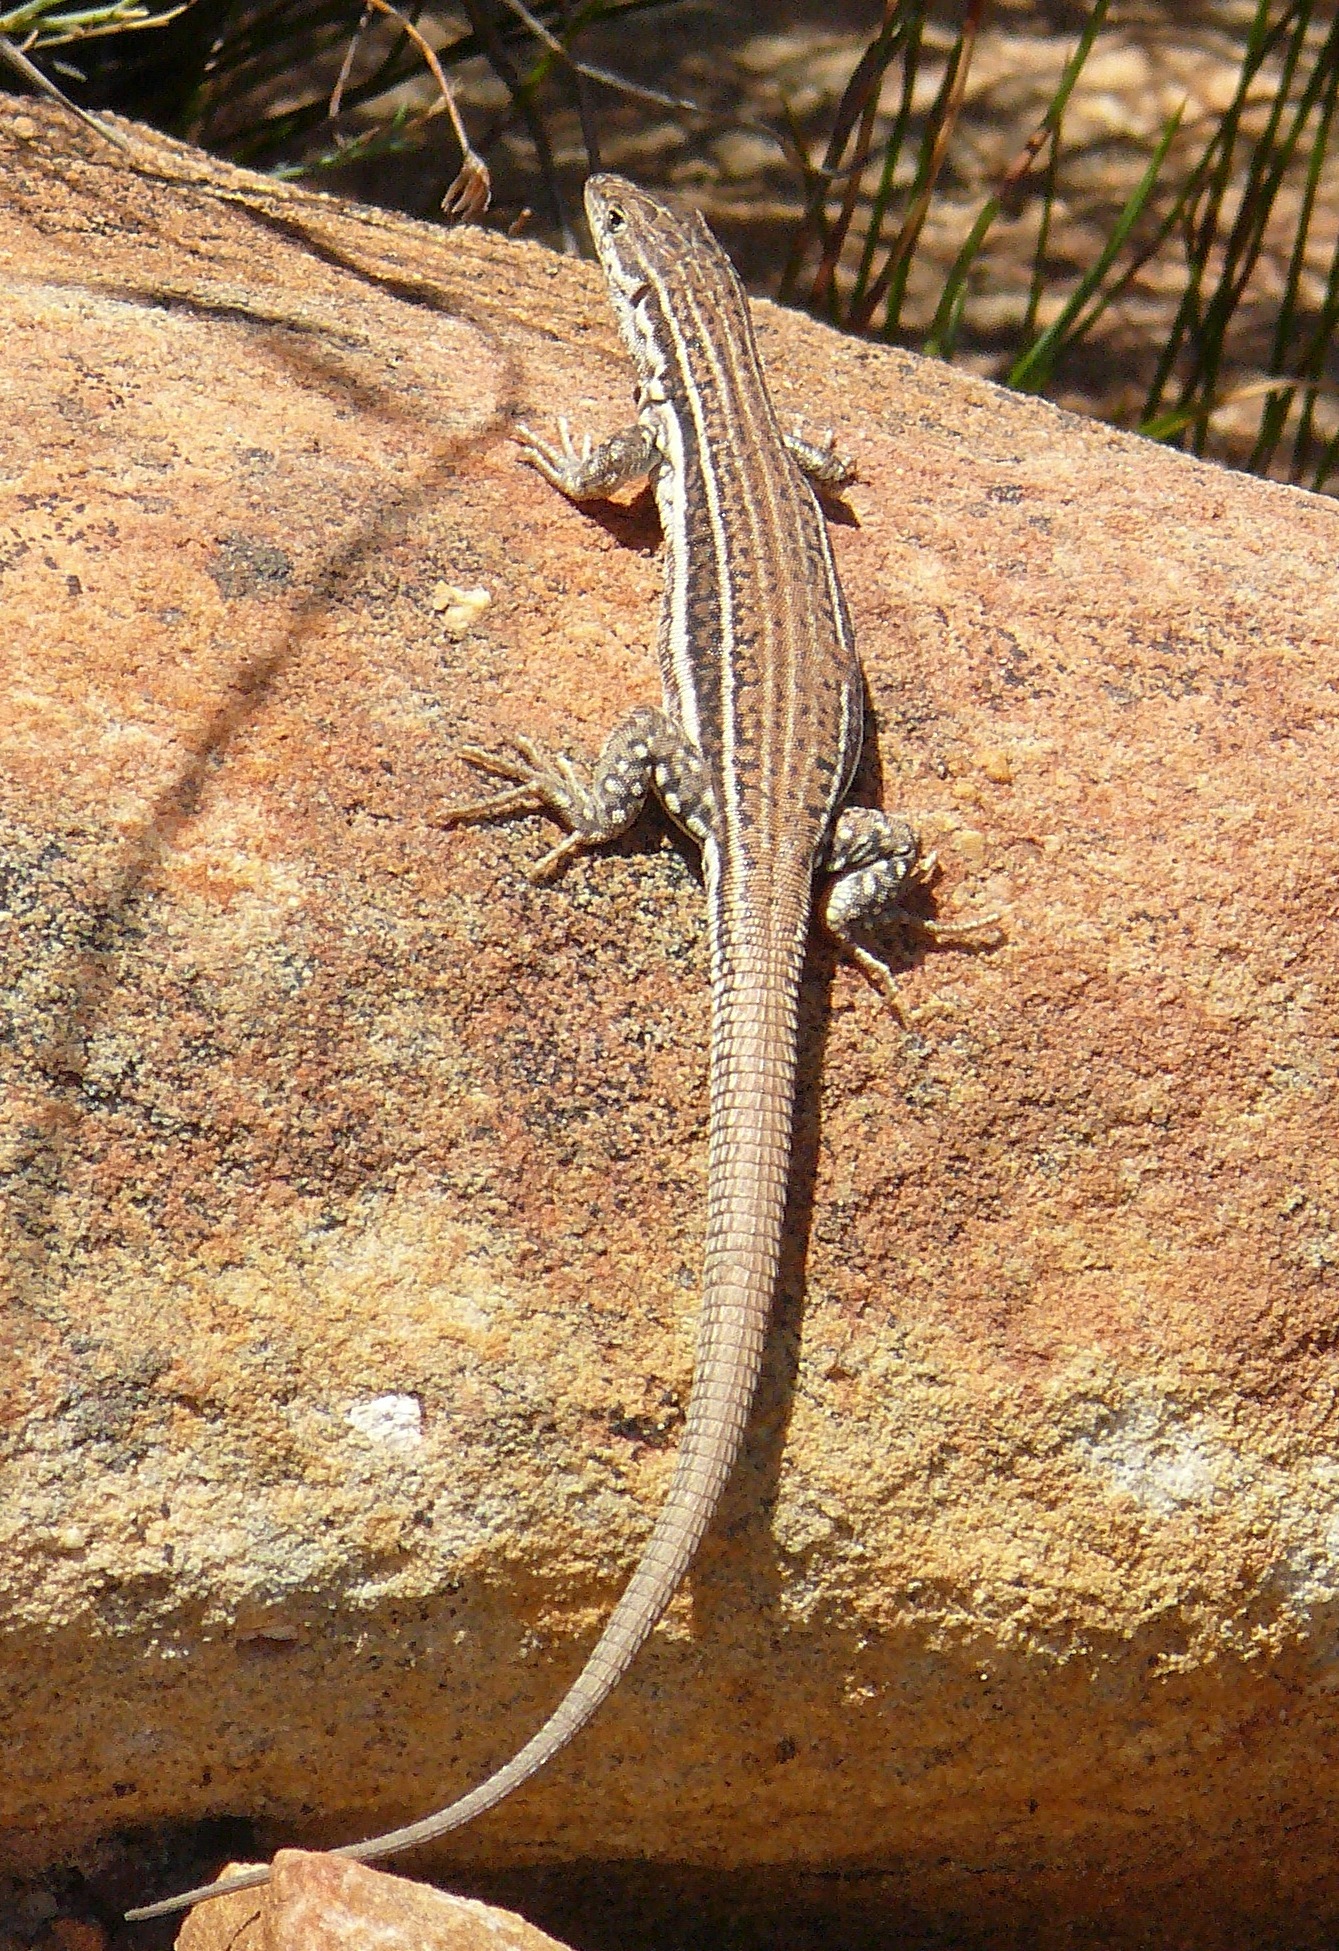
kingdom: Animalia
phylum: Chordata
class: Squamata
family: Lacertidae
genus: Pedioplanis
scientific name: Pedioplanis burchelli
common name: Burchell's sand lizard
